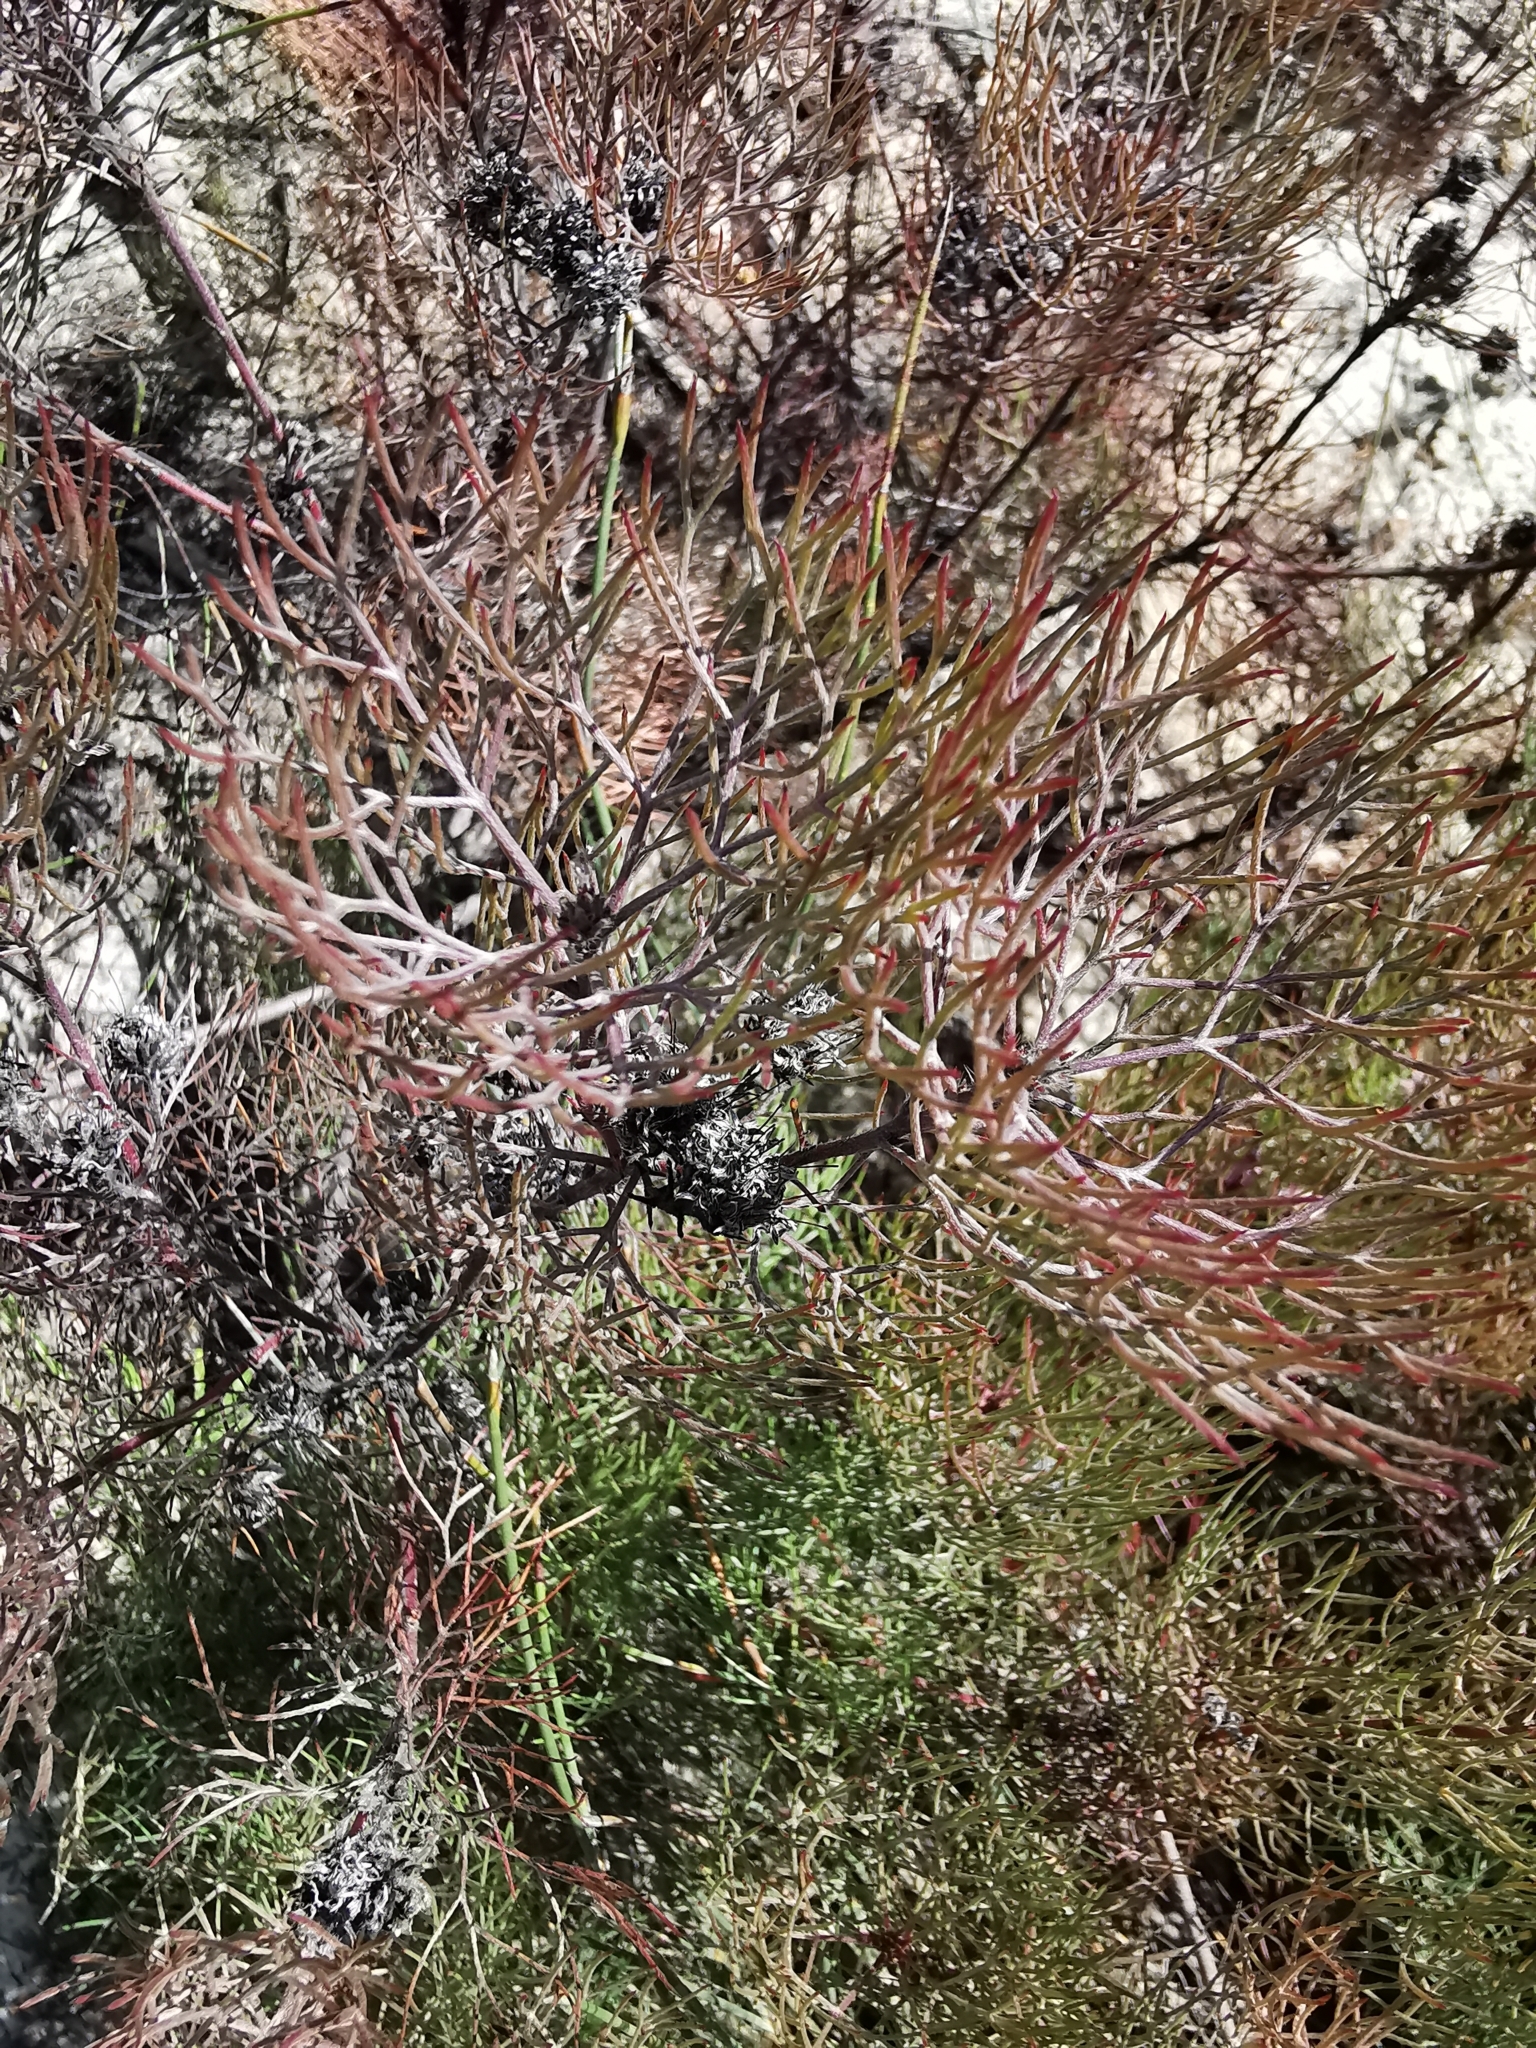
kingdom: Plantae
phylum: Tracheophyta
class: Magnoliopsida
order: Proteales
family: Proteaceae
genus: Serruria
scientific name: Serruria fasciflora
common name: Common pin spiderhead
